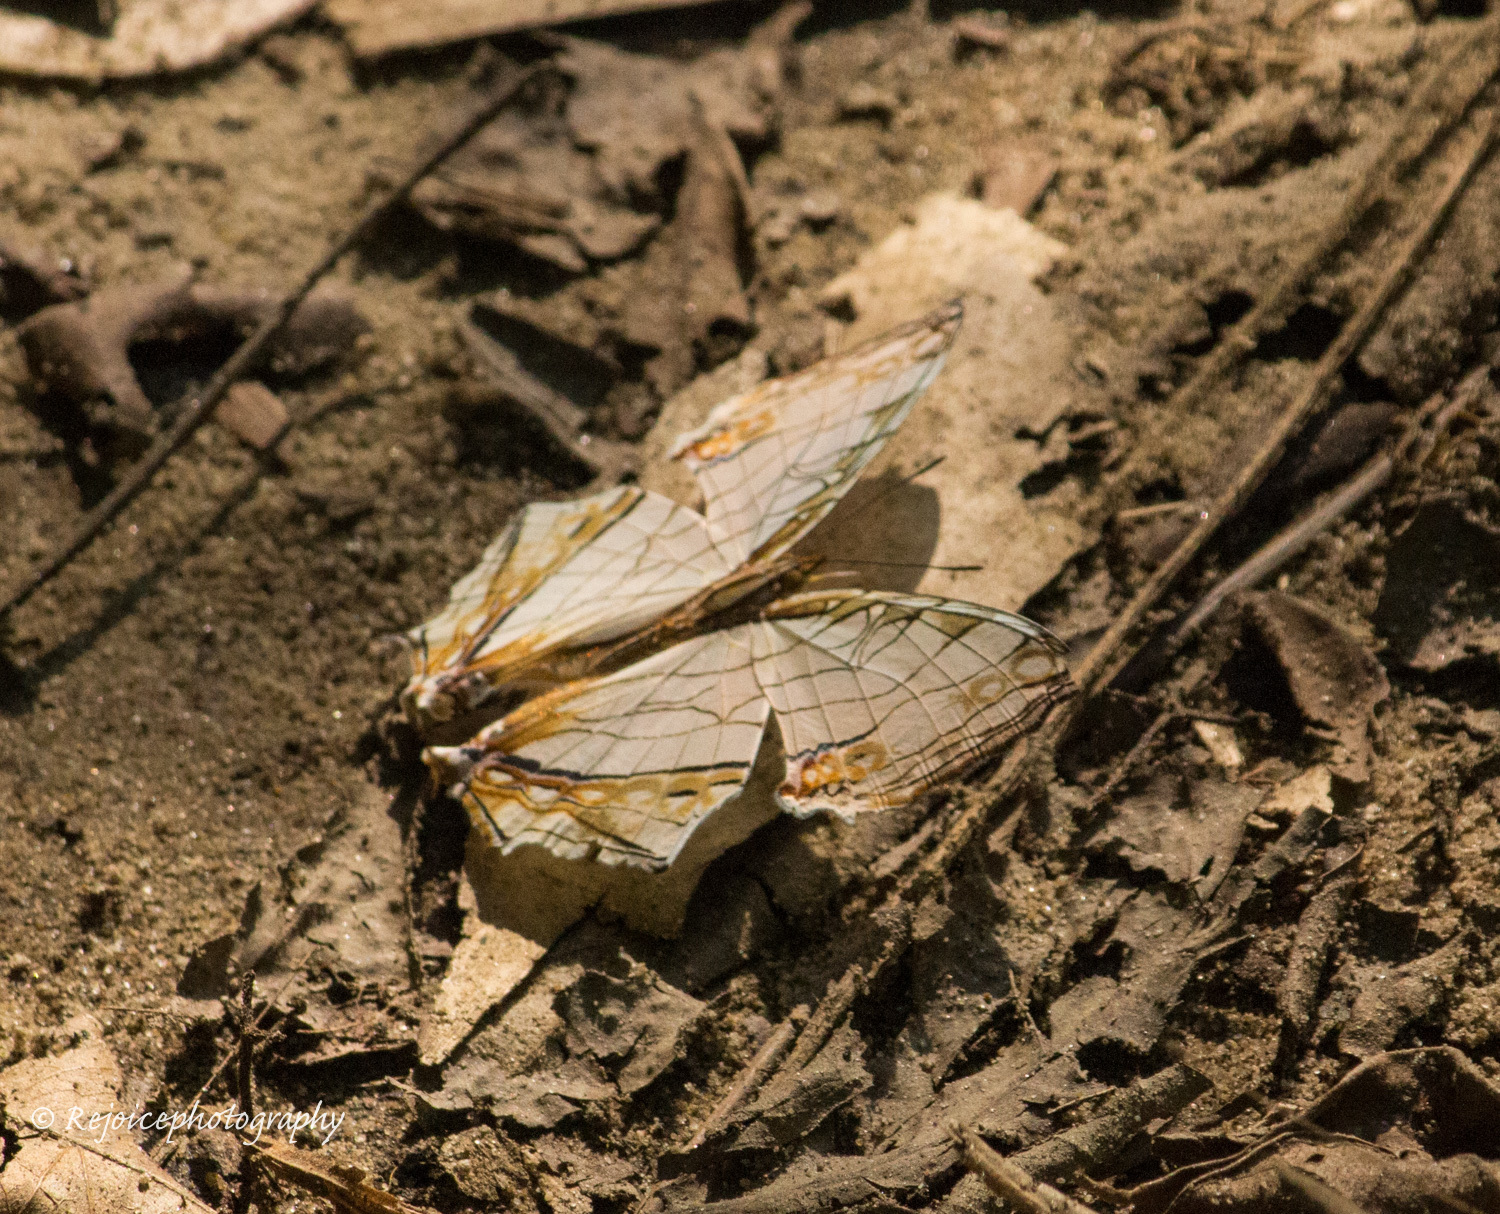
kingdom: Animalia
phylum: Arthropoda
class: Insecta
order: Lepidoptera
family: Nymphalidae
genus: Cyrestis
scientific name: Cyrestis thyodamas
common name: Common mapwing
